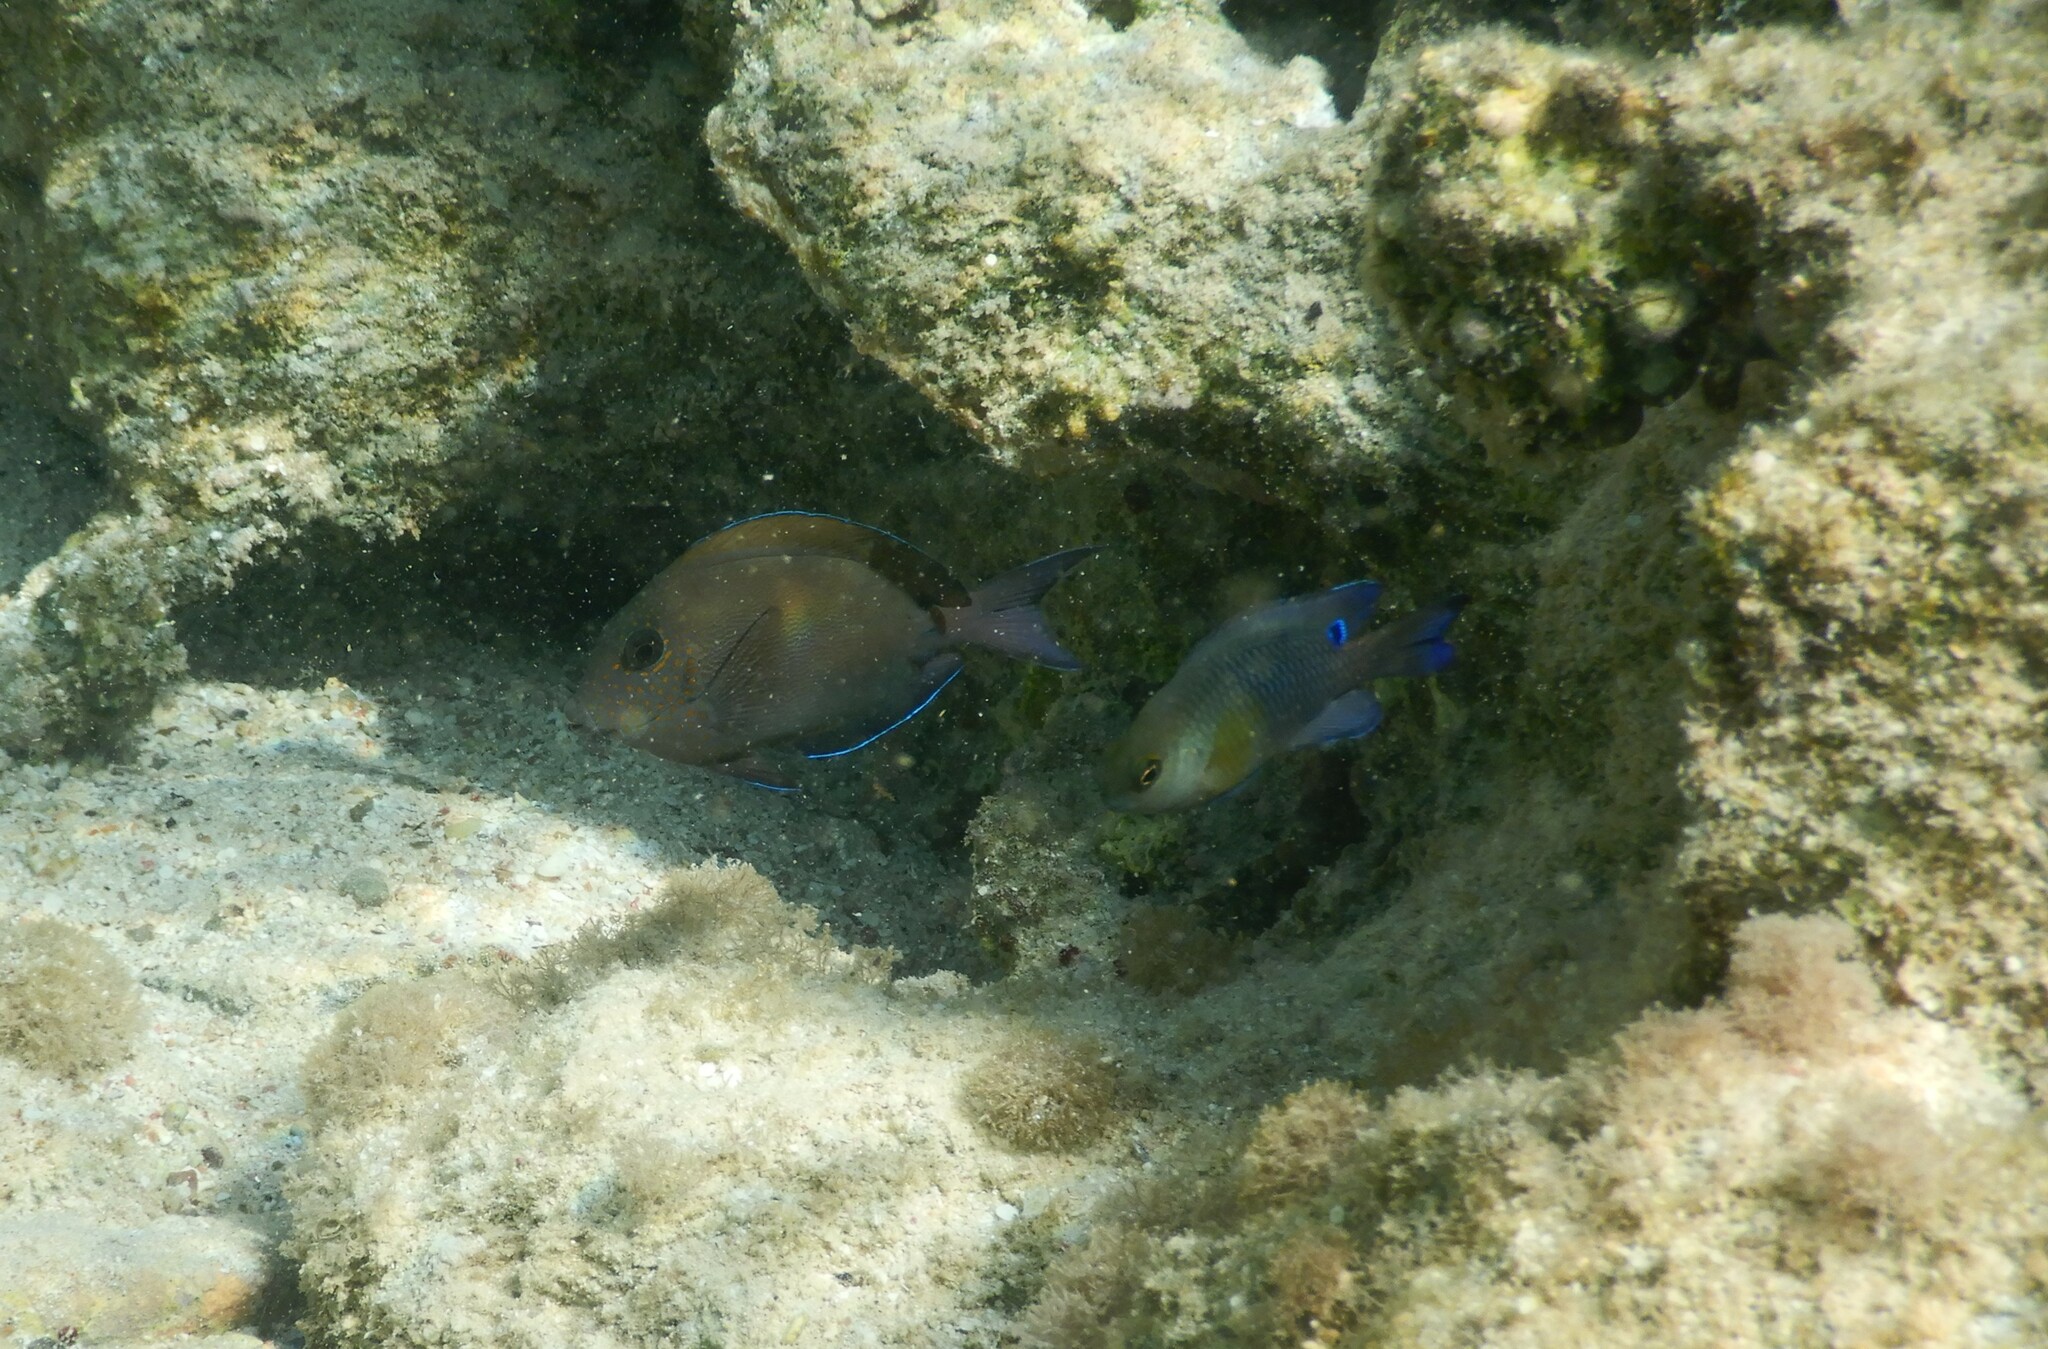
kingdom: Animalia
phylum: Chordata
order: Perciformes
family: Acanthuridae
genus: Acanthurus
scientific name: Acanthurus nigrofuscus
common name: Blackspot surgeonfish
